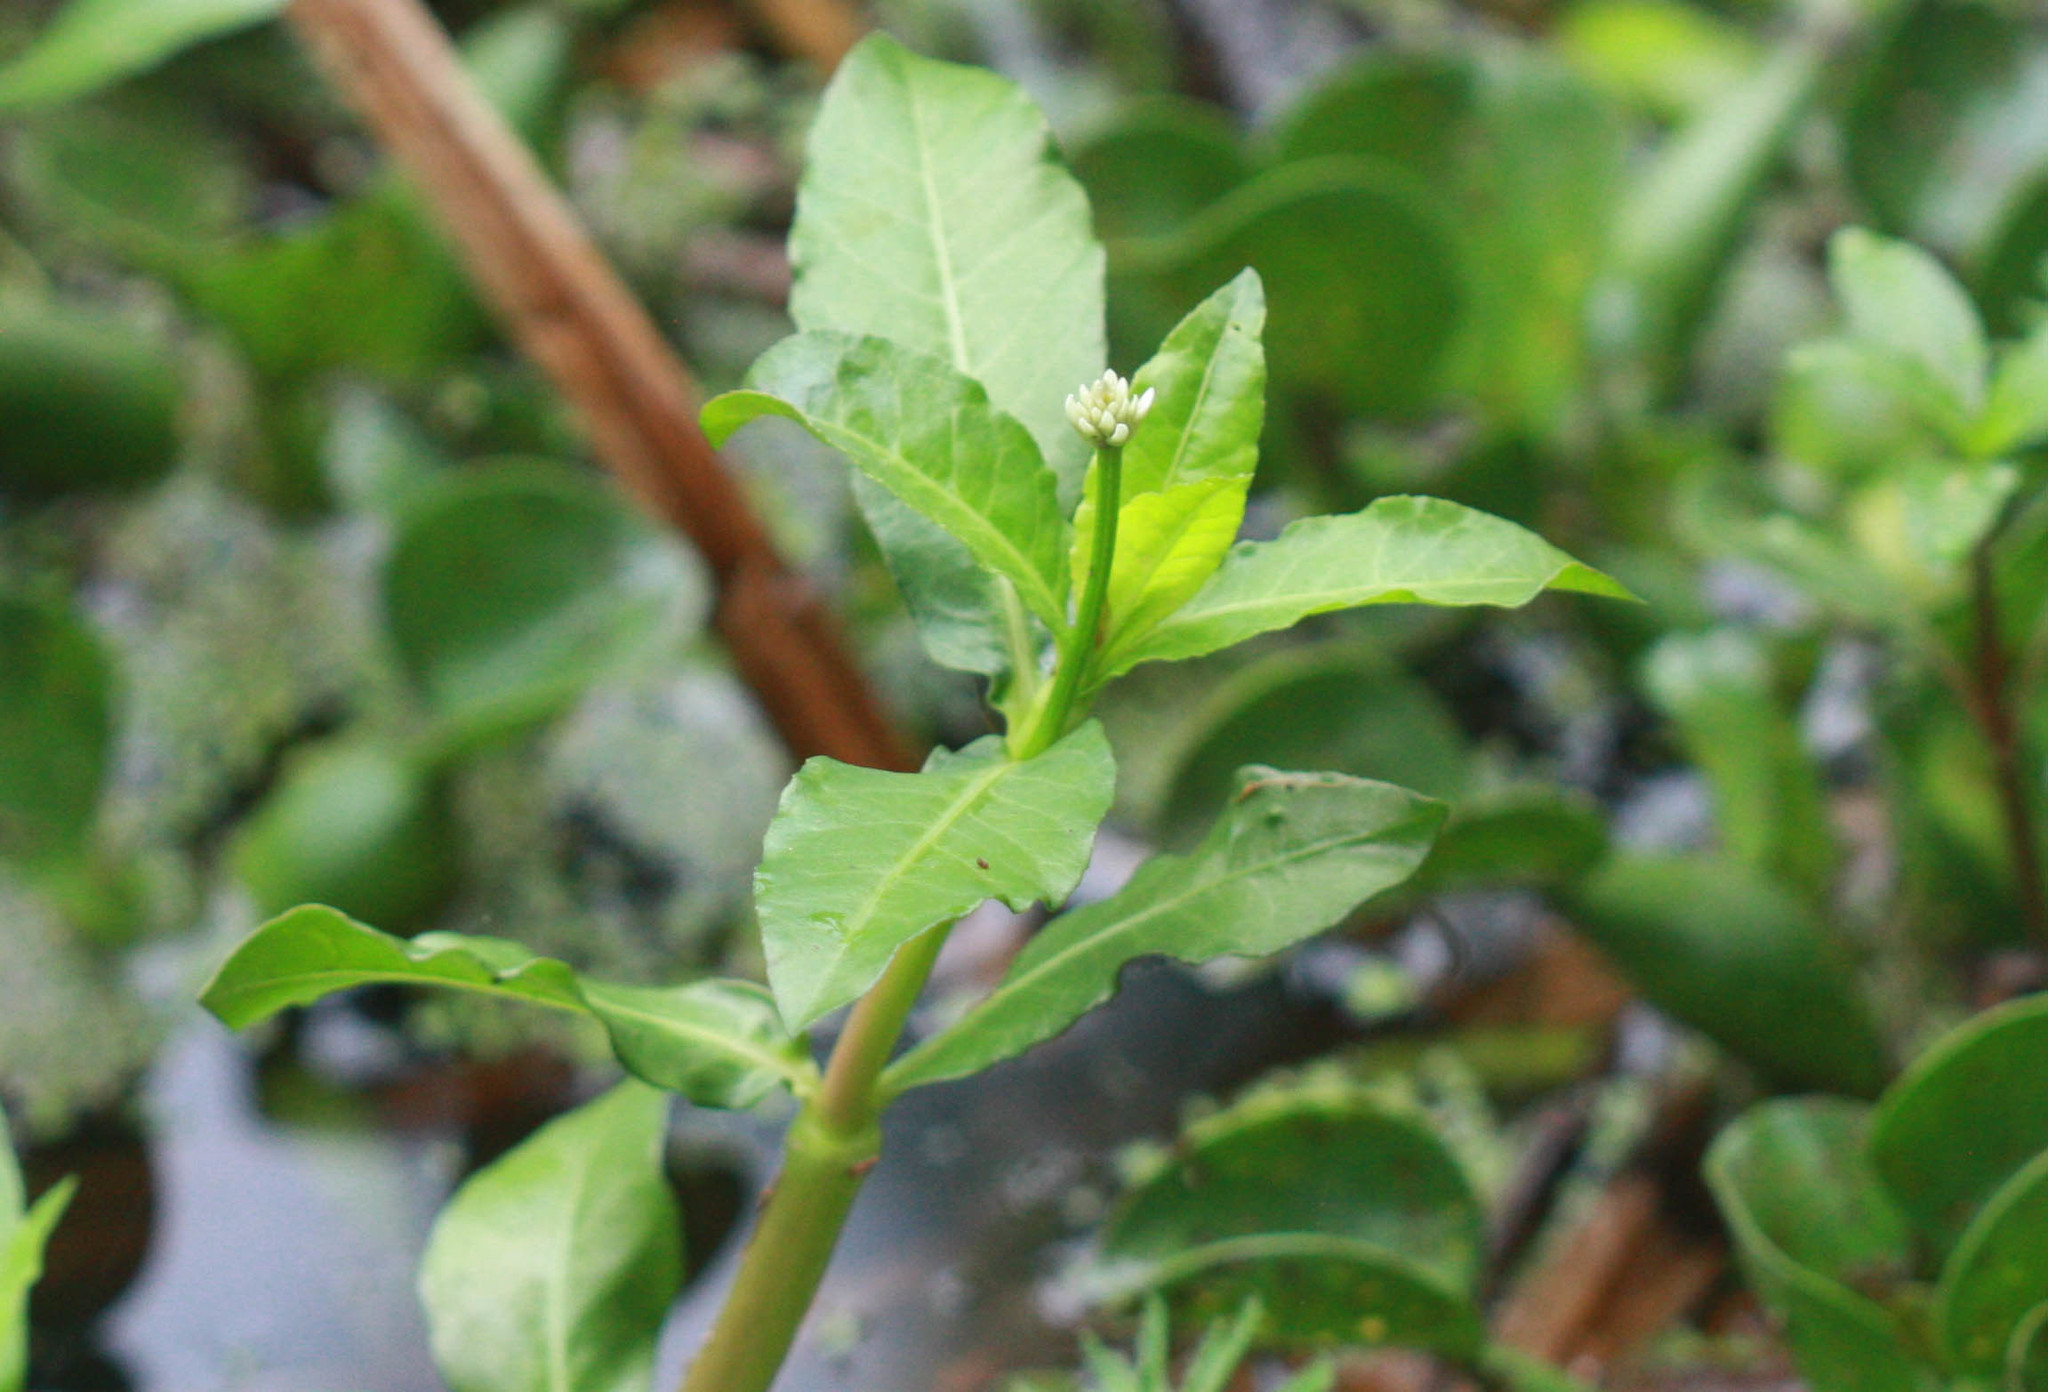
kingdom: Plantae
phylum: Tracheophyta
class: Magnoliopsida
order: Caryophyllales
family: Amaranthaceae
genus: Alternanthera
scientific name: Alternanthera philoxeroides
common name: Alligatorweed
